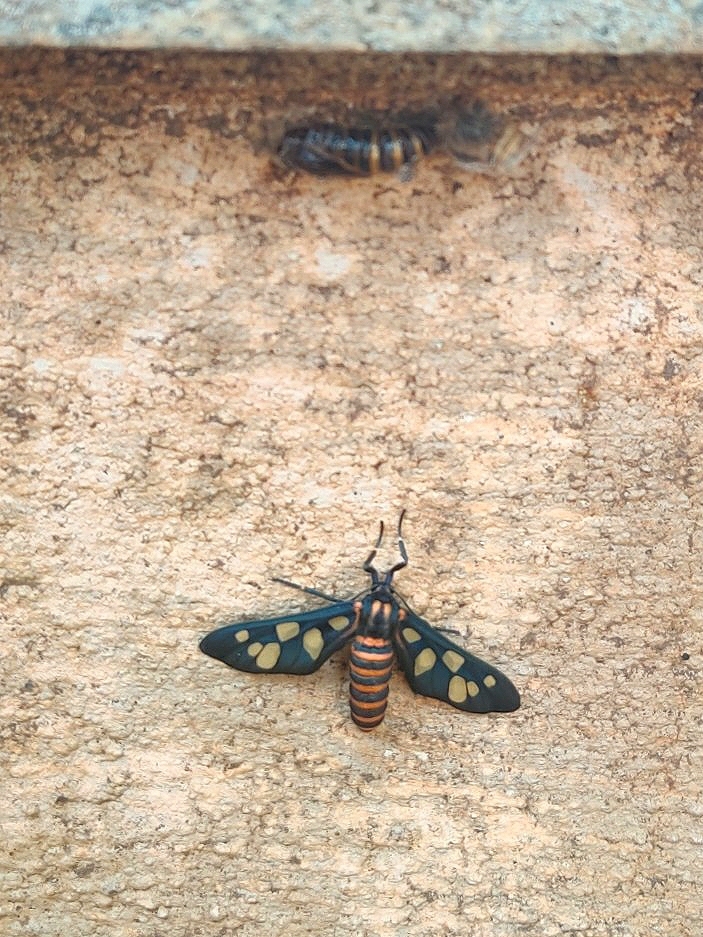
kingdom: Animalia
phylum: Arthropoda
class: Insecta
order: Lepidoptera
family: Erebidae
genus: Amata
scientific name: Amata passalis
